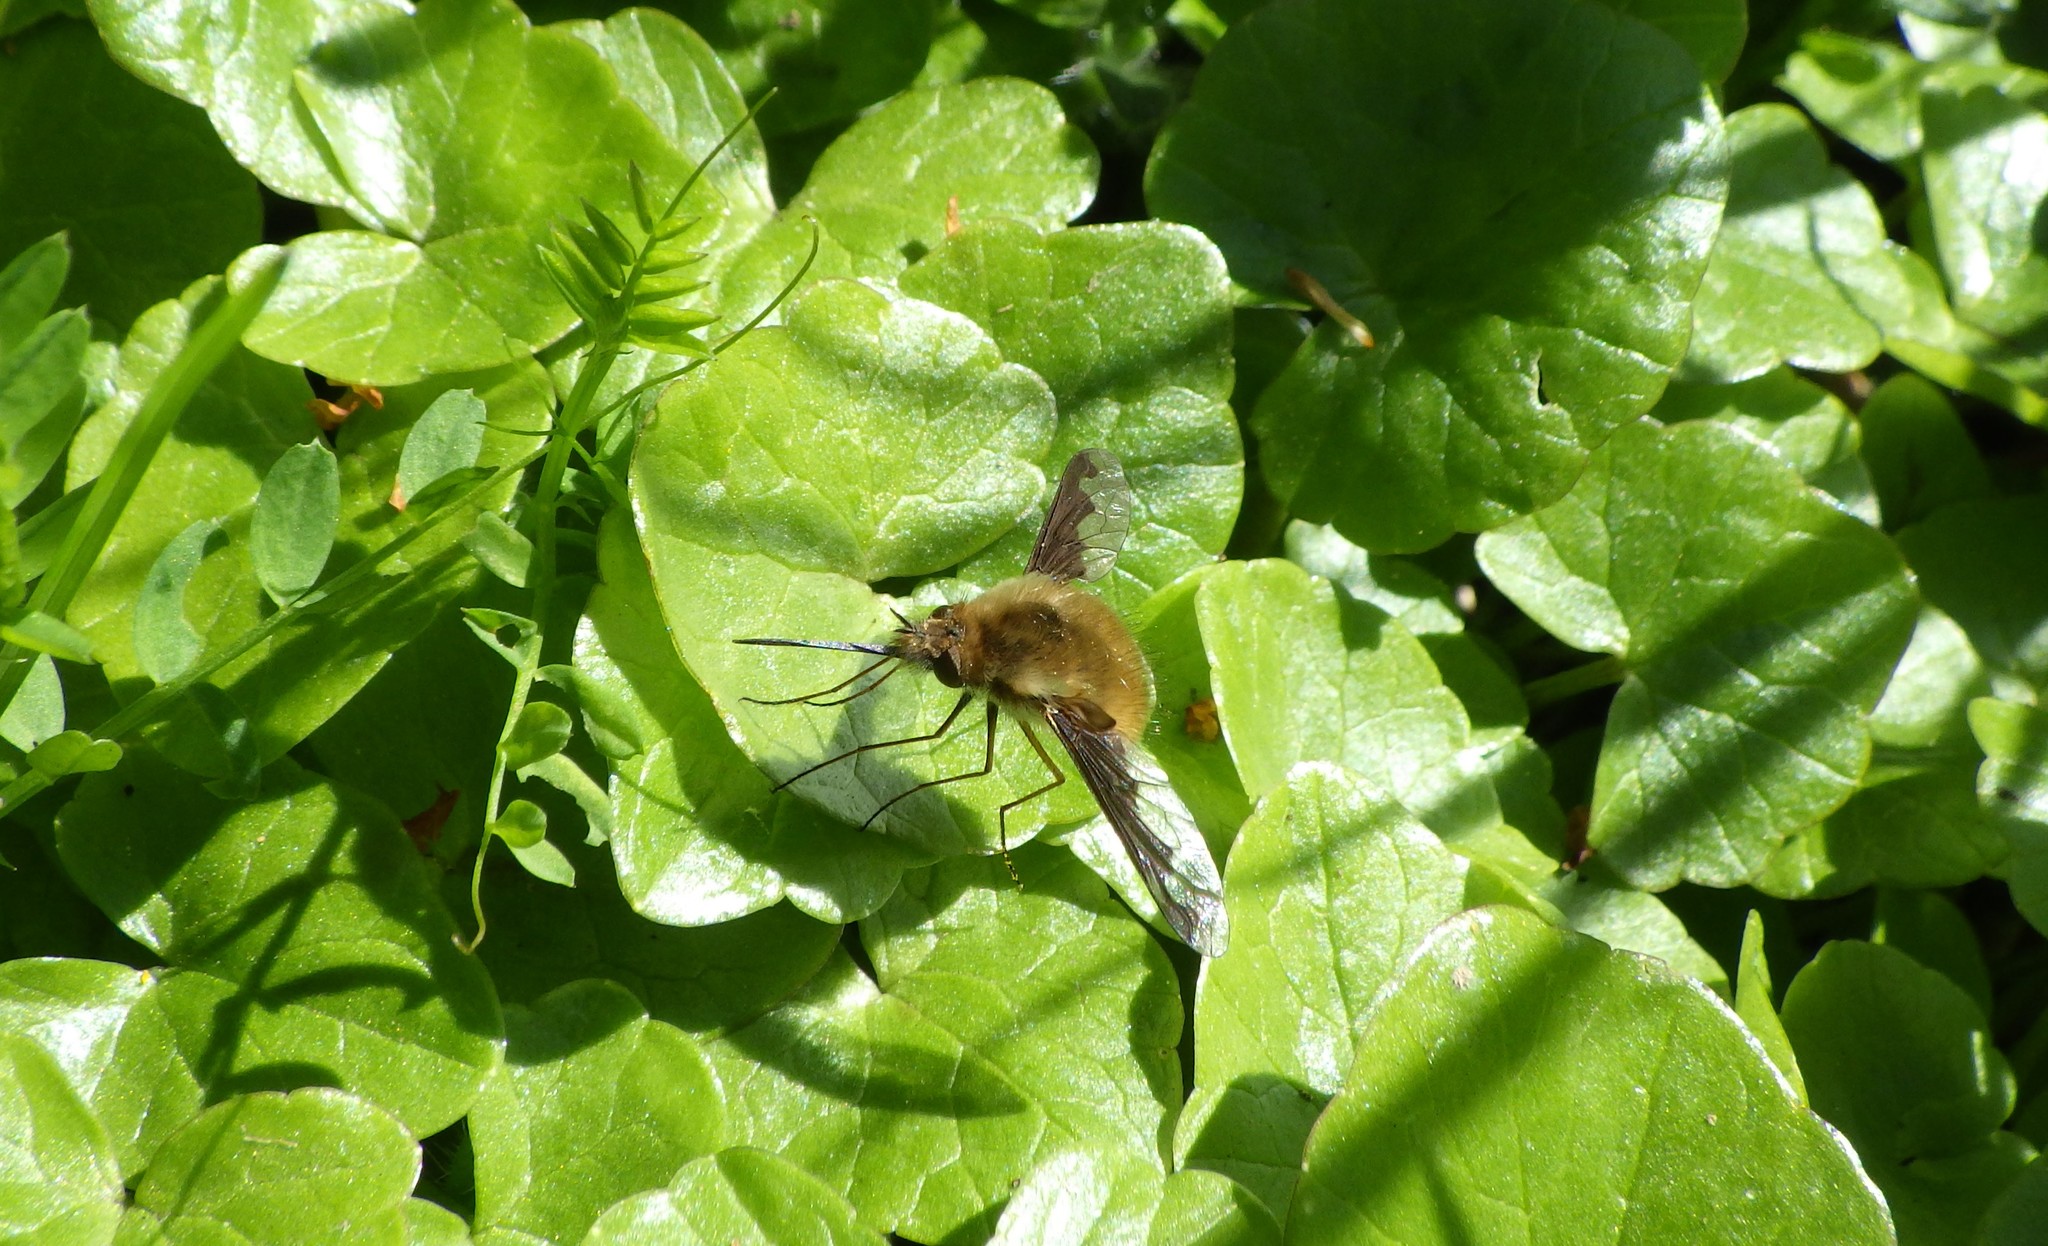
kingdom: Animalia
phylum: Arthropoda
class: Insecta
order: Diptera
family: Bombyliidae
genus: Bombylius
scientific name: Bombylius major
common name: Bee fly
